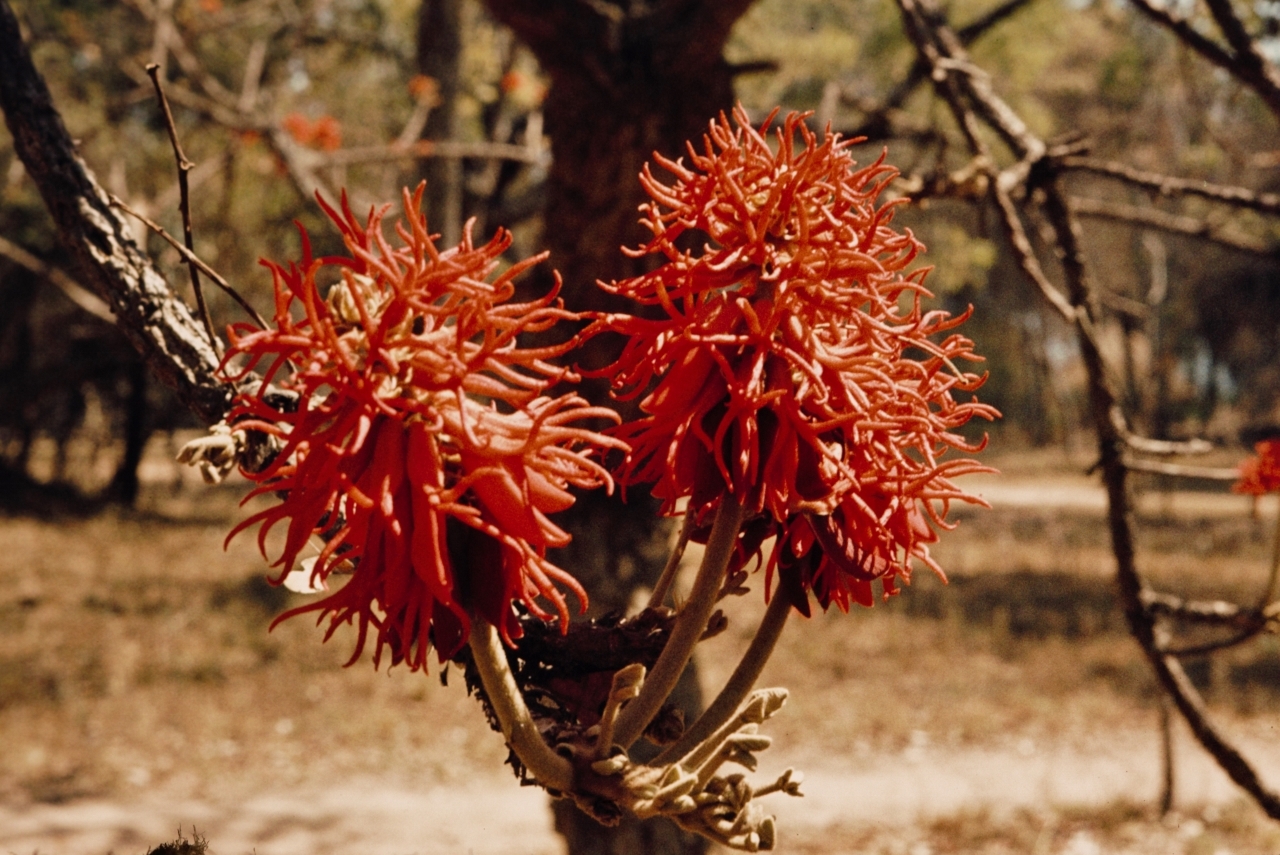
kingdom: Plantae
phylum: Tracheophyta
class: Magnoliopsida
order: Fabales
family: Fabaceae
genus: Erythrina
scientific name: Erythrina abyssinica
